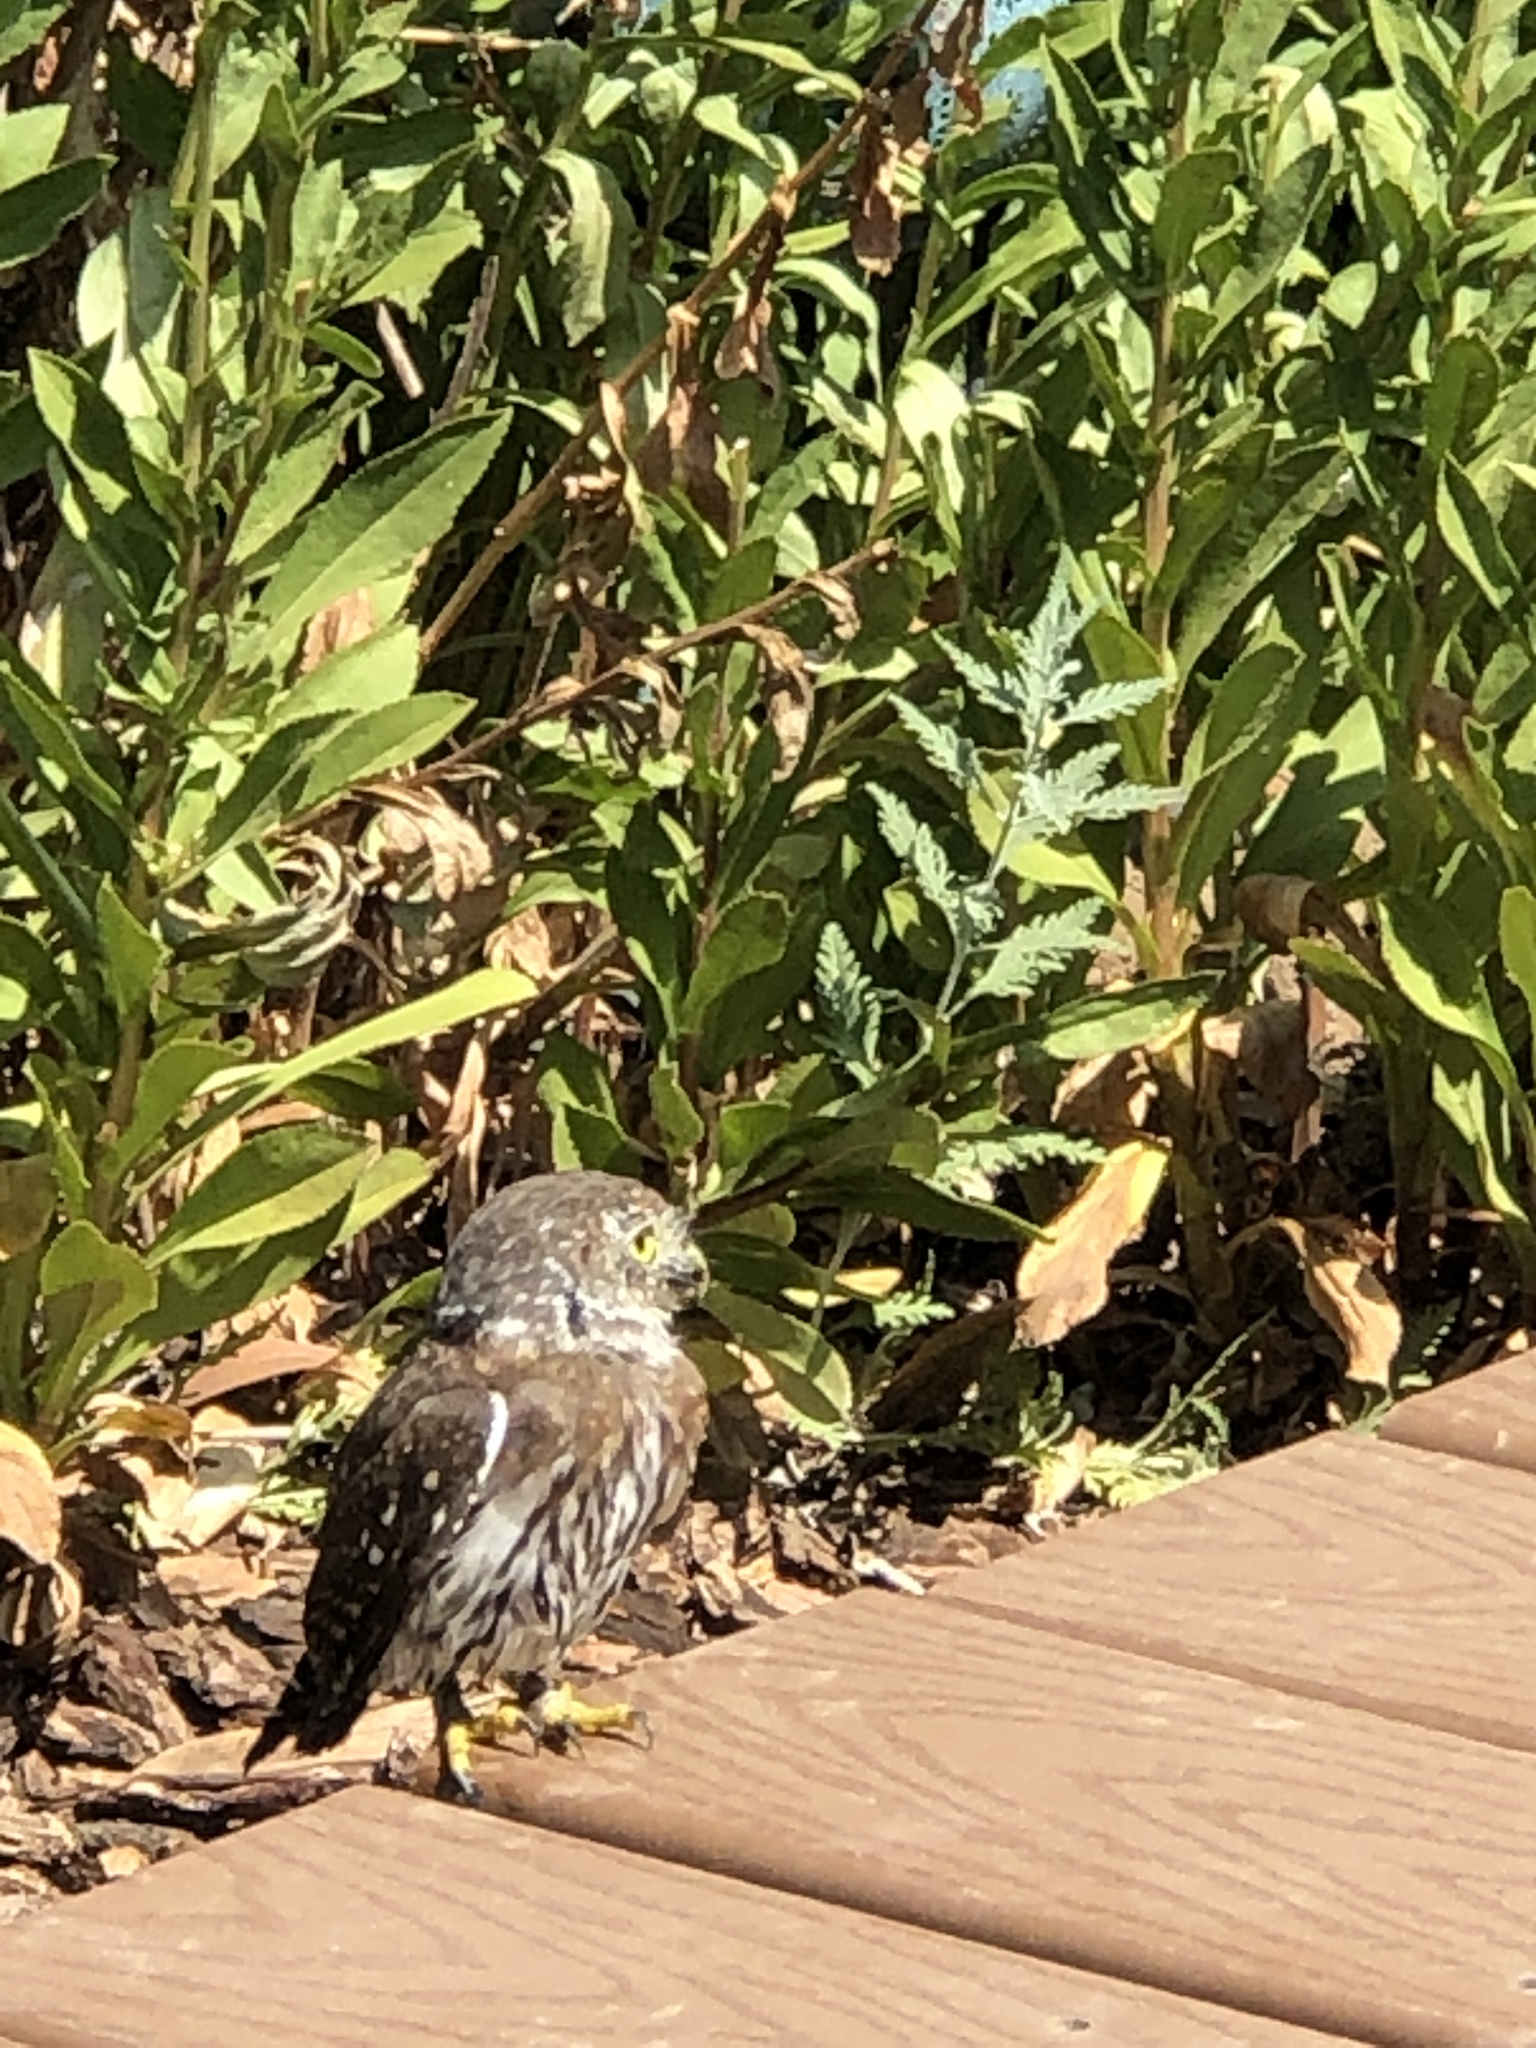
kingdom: Animalia
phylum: Chordata
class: Aves
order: Strigiformes
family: Strigidae
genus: Glaucidium
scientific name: Glaucidium gnoma
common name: Northern pygmy-owl
